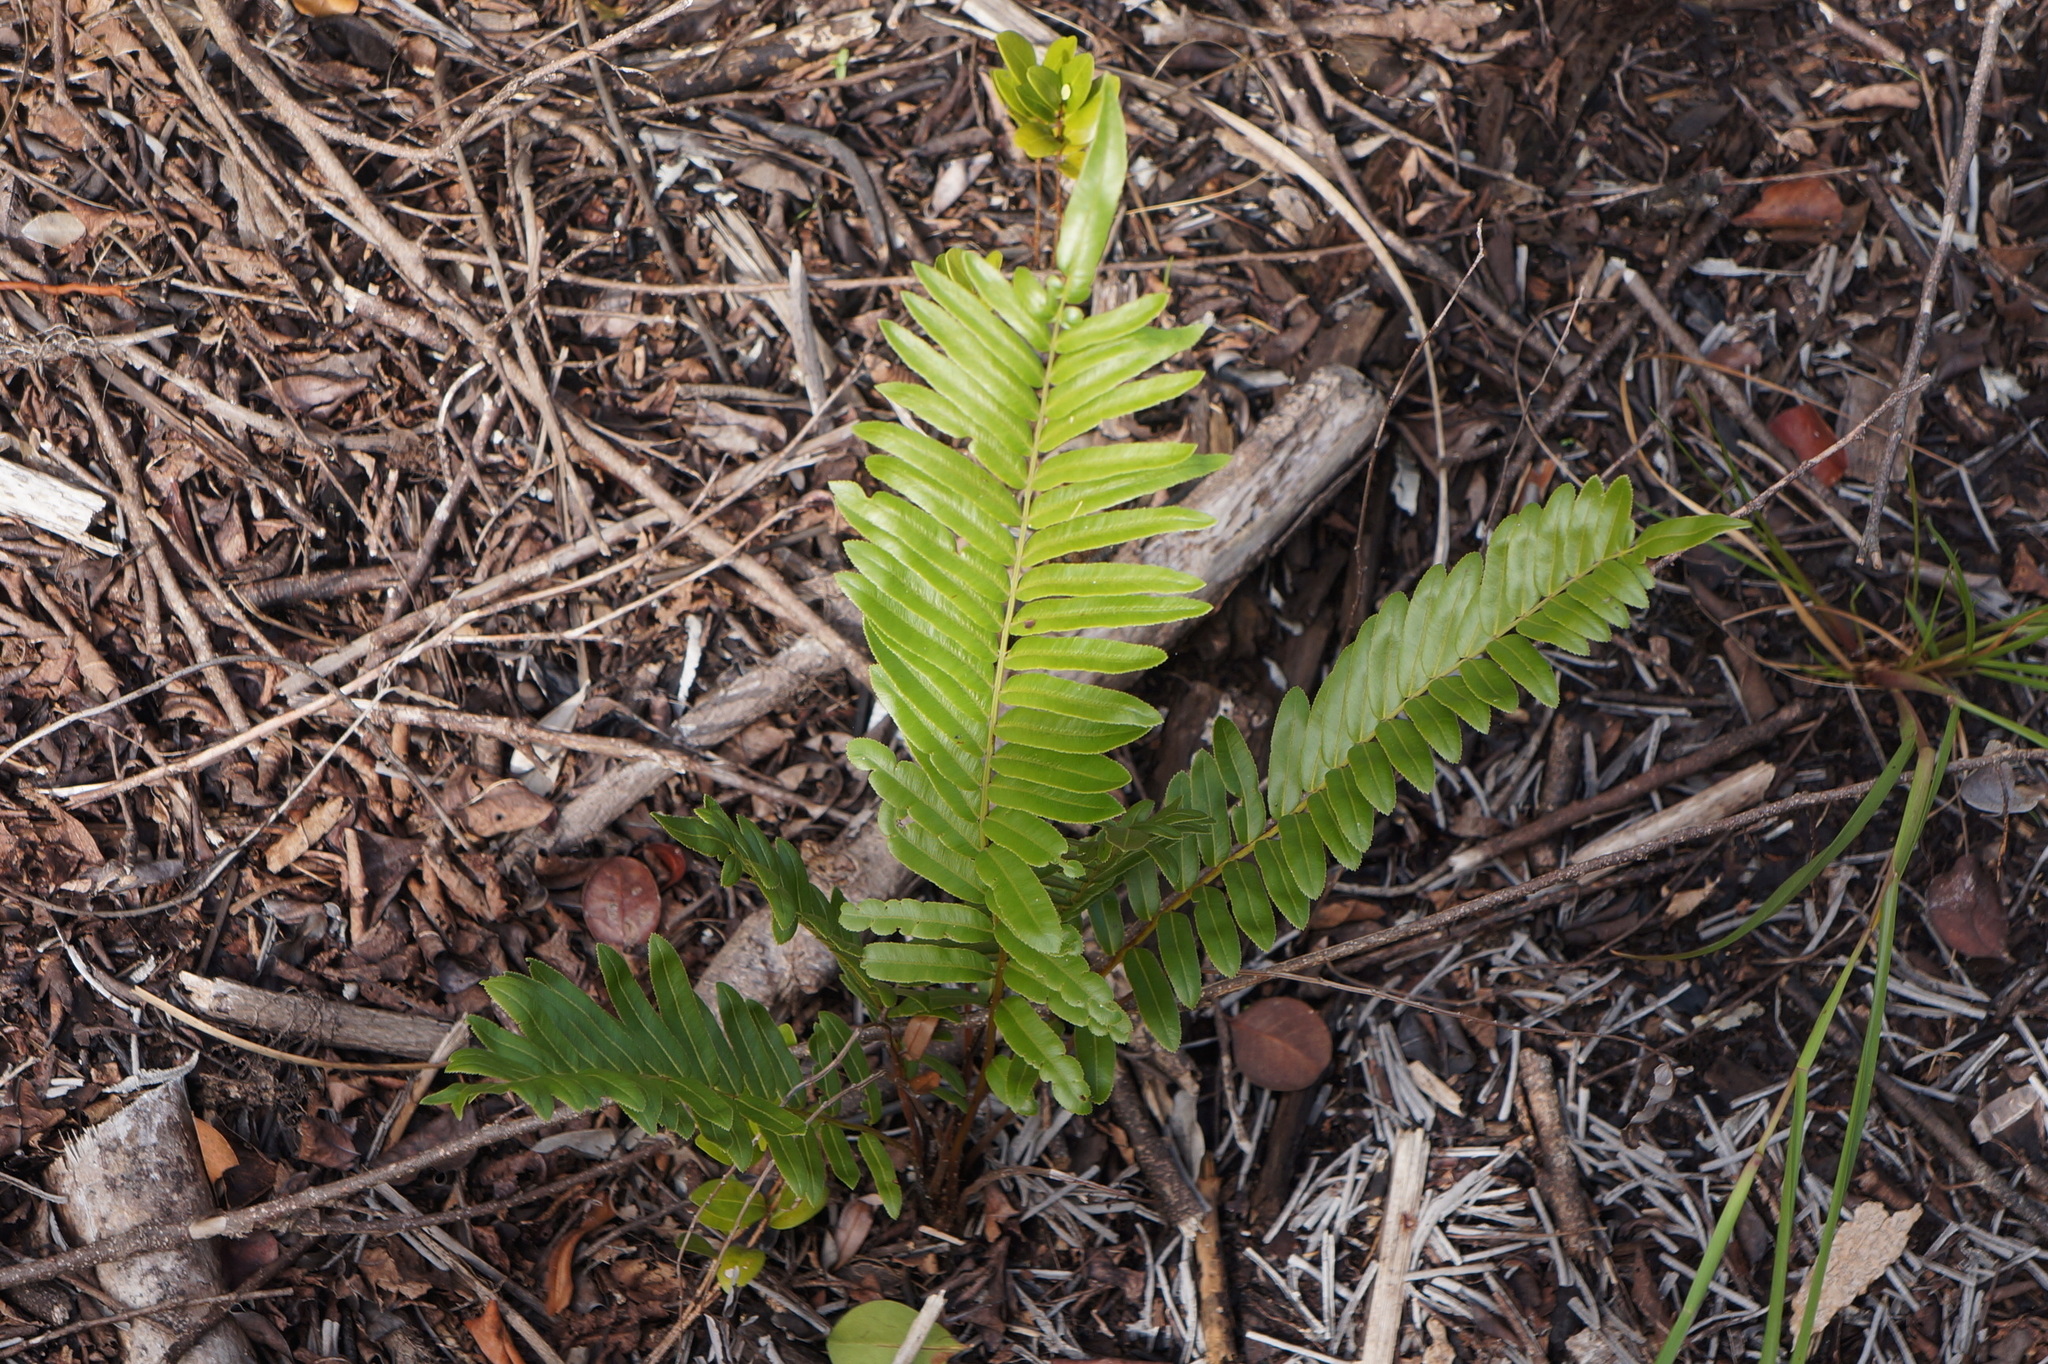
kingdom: Plantae
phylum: Tracheophyta
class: Polypodiopsida
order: Polypodiales
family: Blechnaceae
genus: Telmatoblechnum
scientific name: Telmatoblechnum serrulatum
